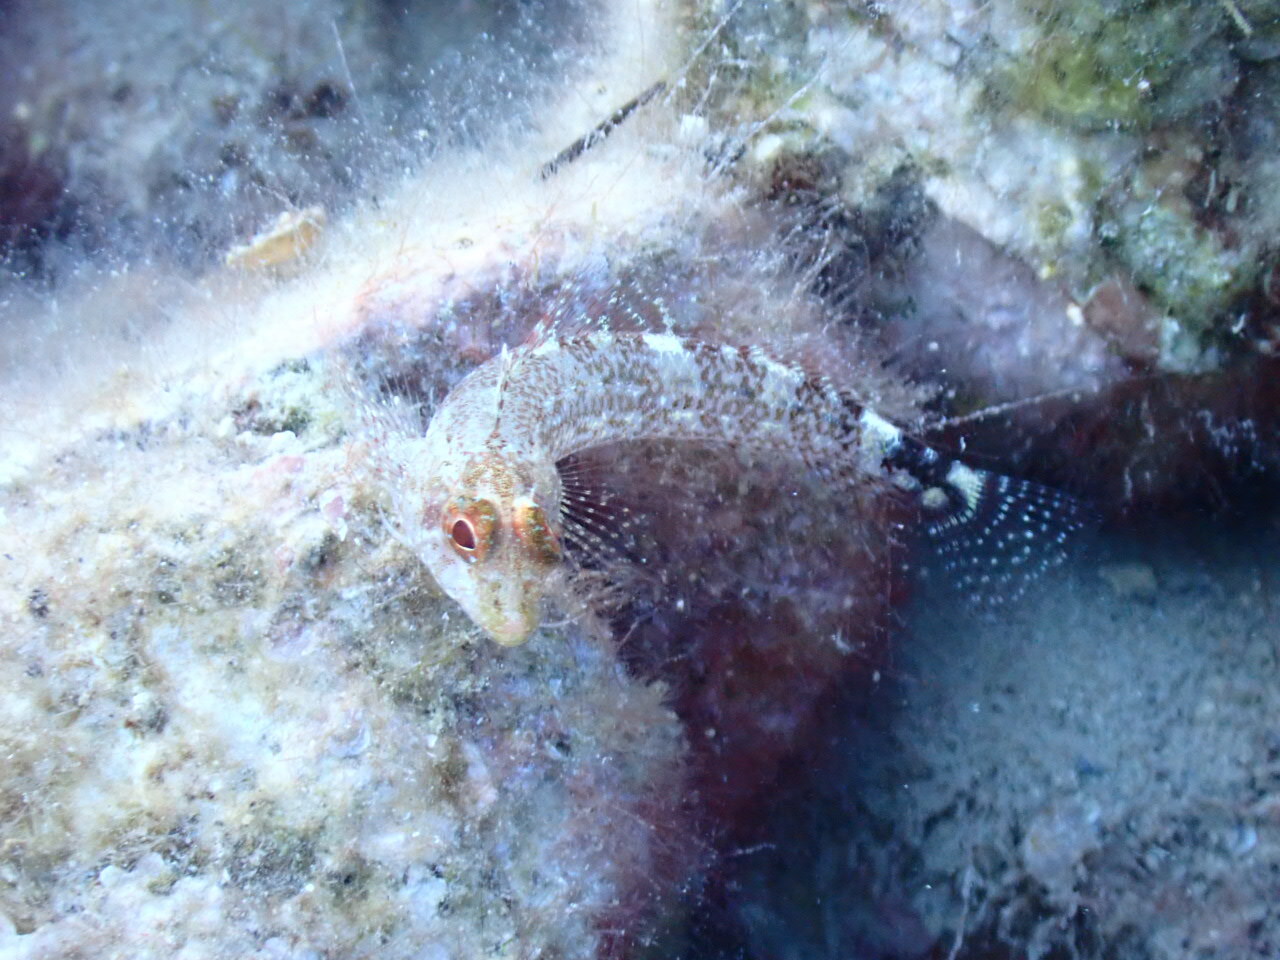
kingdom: Animalia
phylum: Chordata
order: Perciformes
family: Tripterygiidae
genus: Tripterygion
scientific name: Tripterygion delaisi
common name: Black-face blenny
